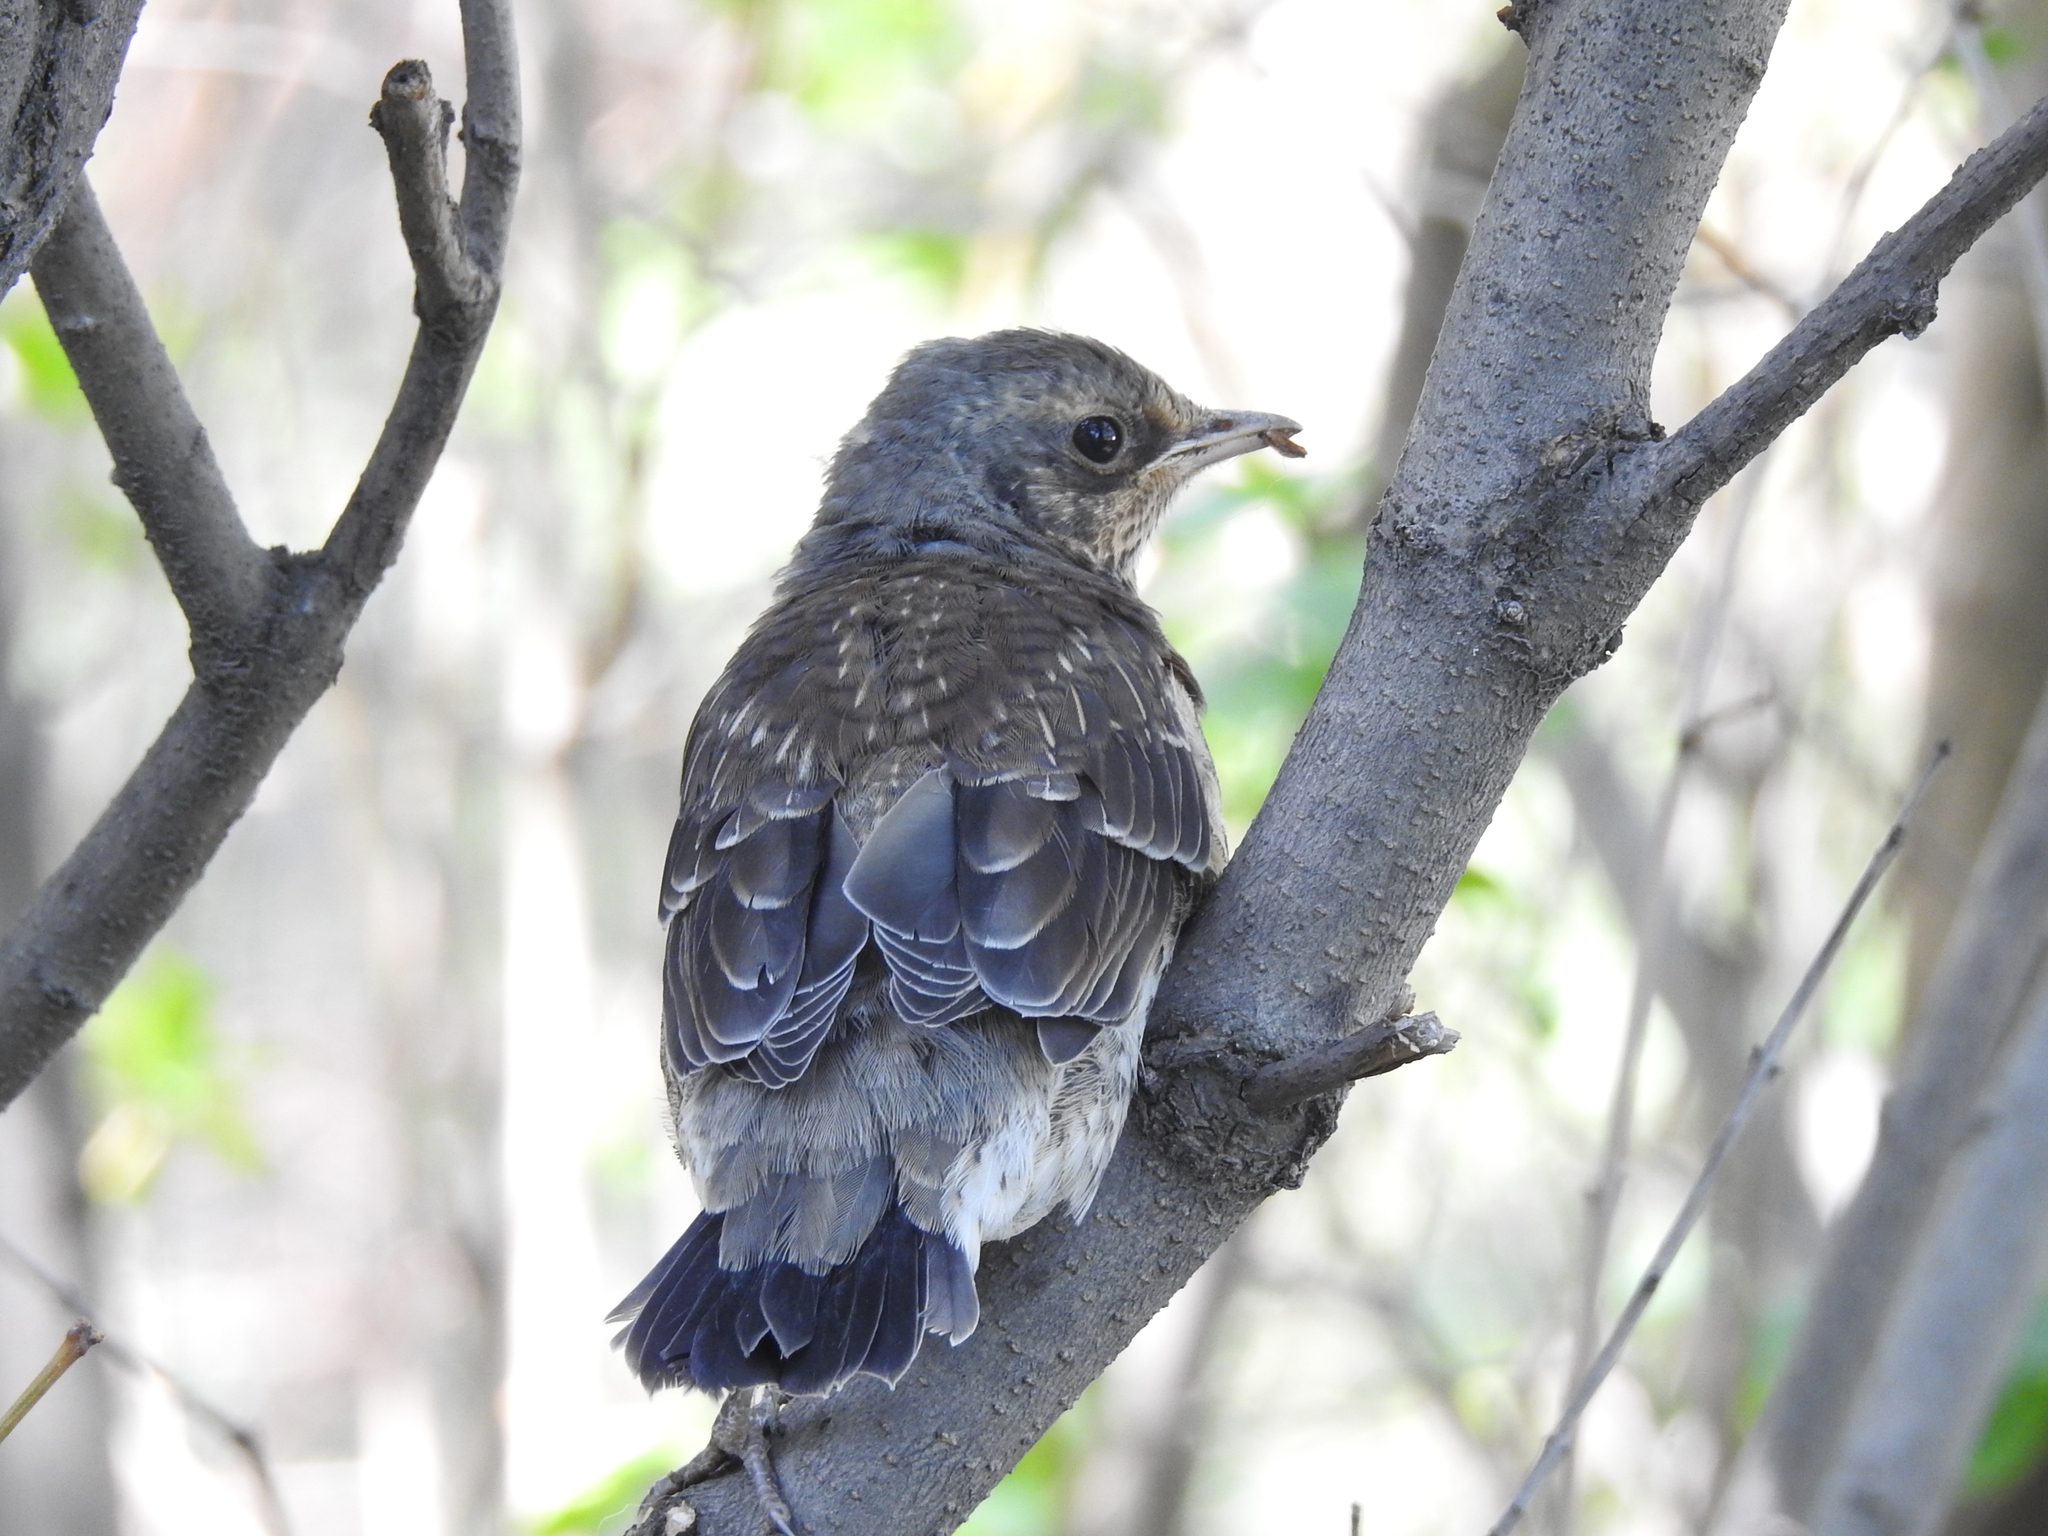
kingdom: Animalia
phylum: Chordata
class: Aves
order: Passeriformes
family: Turdidae
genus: Turdus
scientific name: Turdus pilaris
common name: Fieldfare
